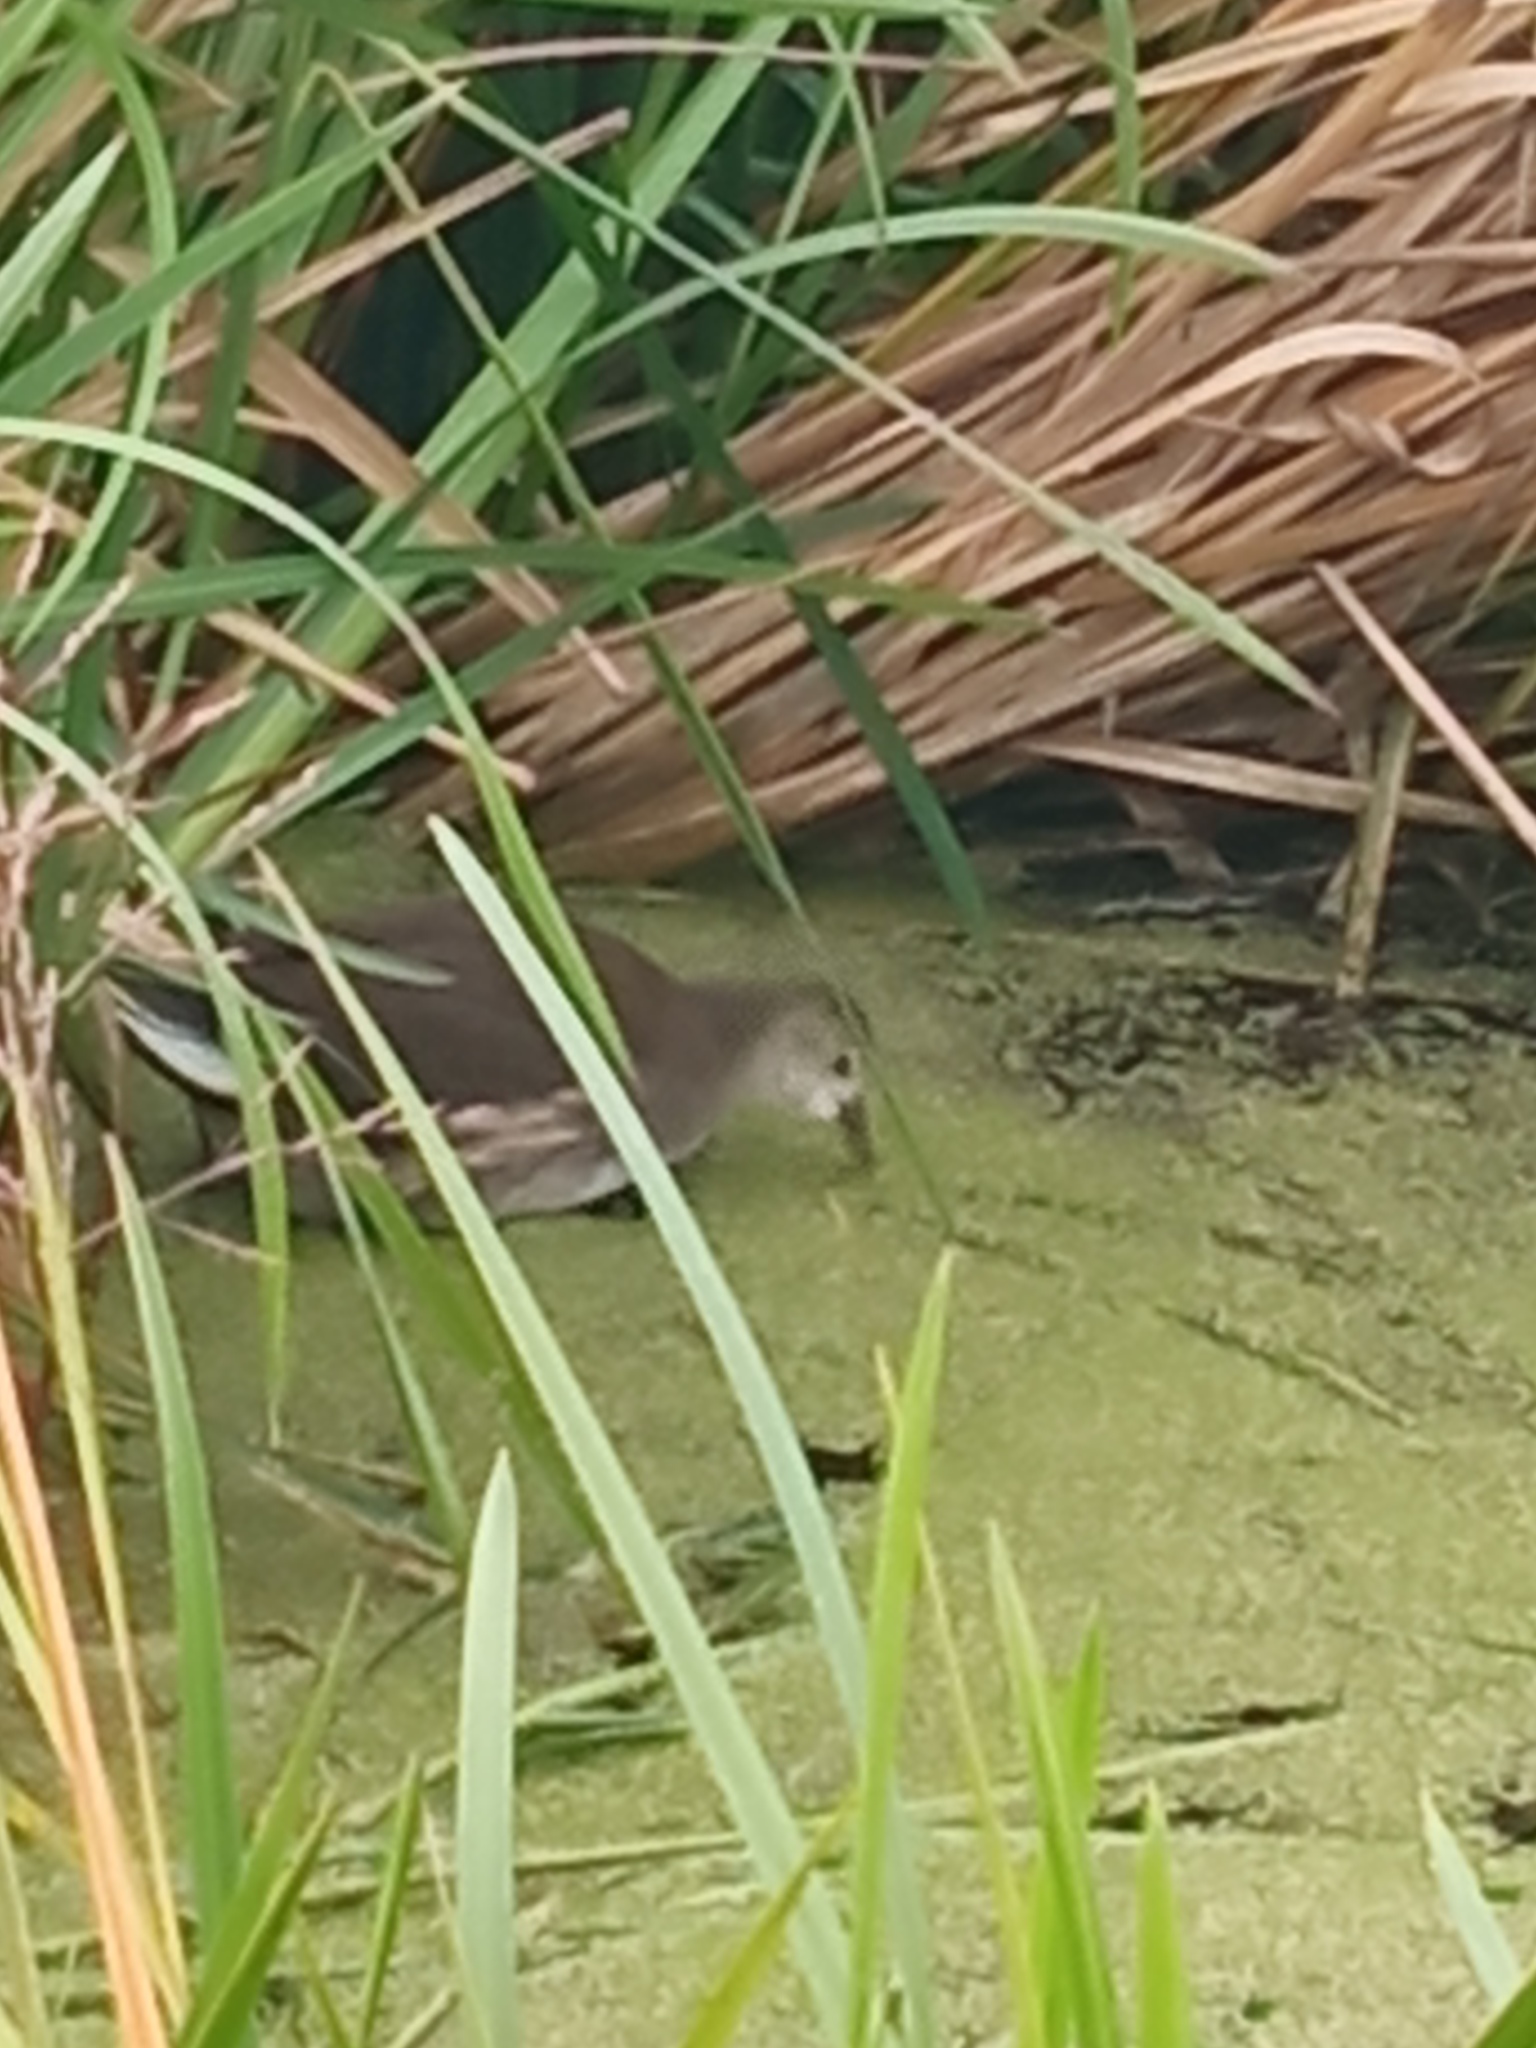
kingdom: Animalia
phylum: Chordata
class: Aves
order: Gruiformes
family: Rallidae
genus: Gallinula
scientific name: Gallinula chloropus
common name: Common moorhen
